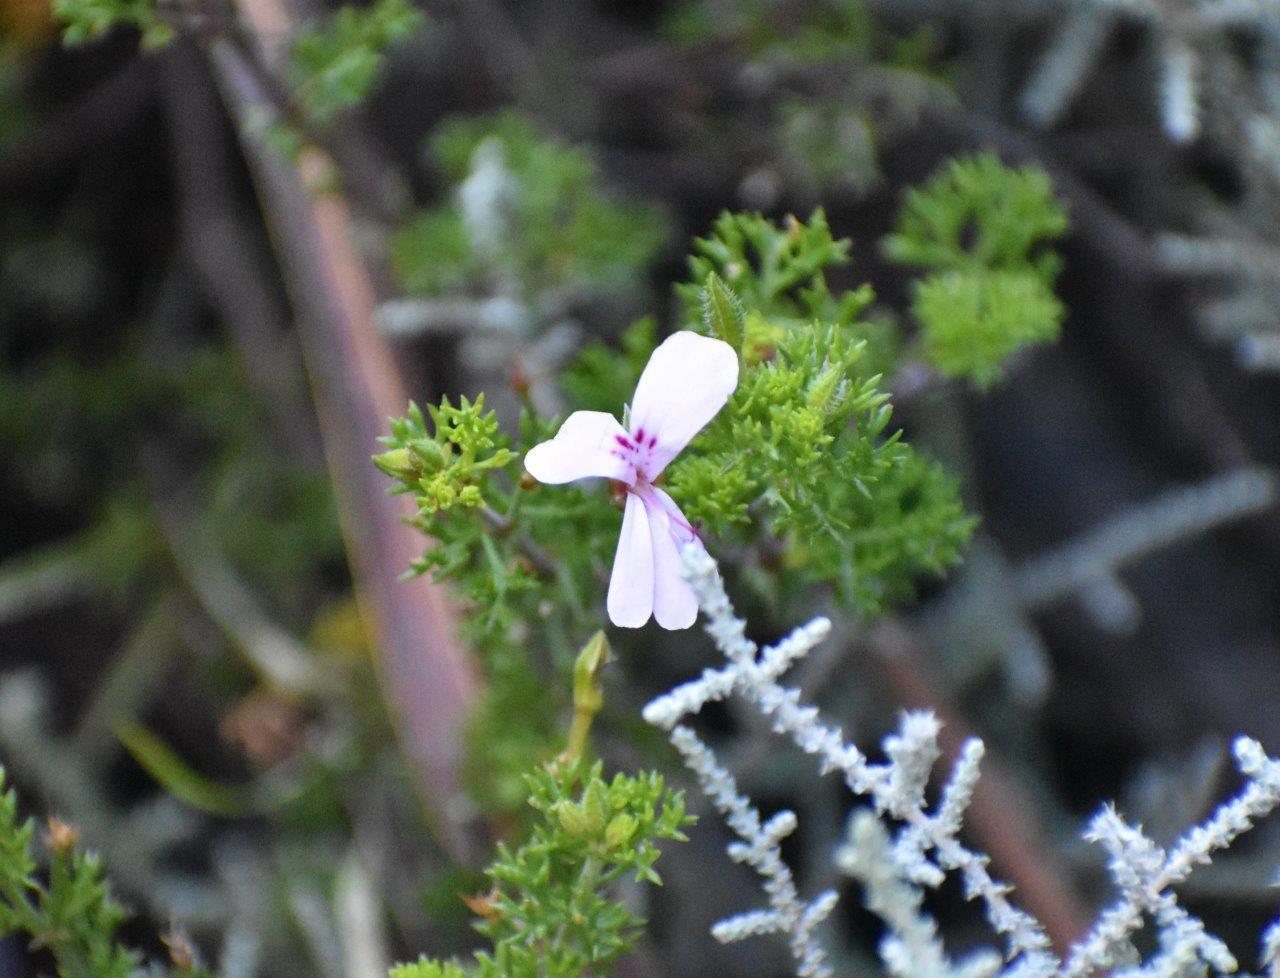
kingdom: Plantae
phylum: Tracheophyta
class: Magnoliopsida
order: Geraniales
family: Geraniaceae
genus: Pelargonium
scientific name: Pelargonium fruticosum
